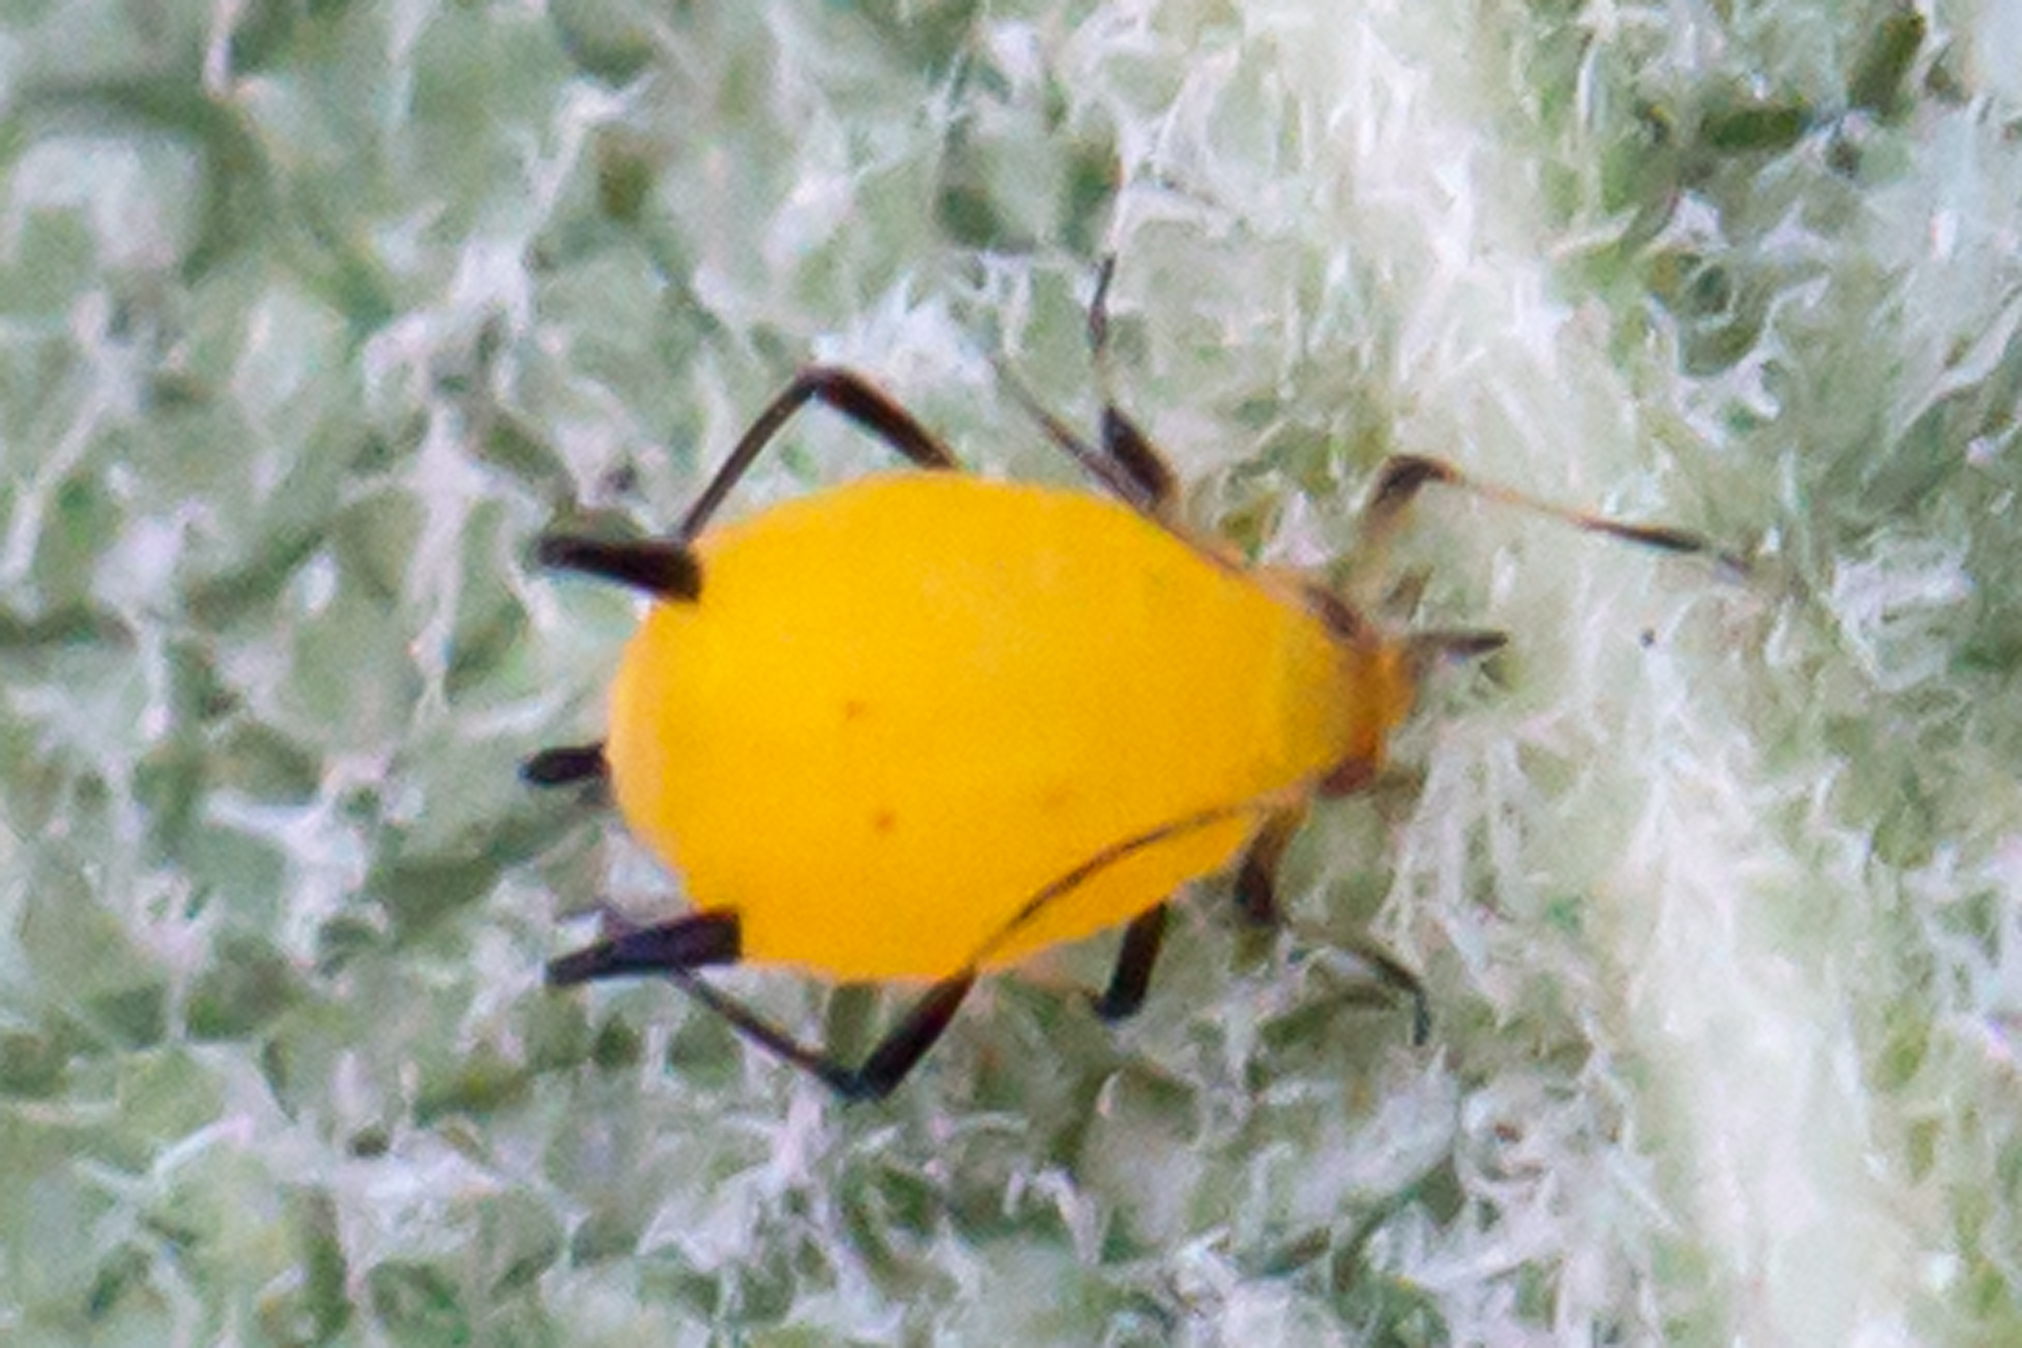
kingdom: Animalia
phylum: Arthropoda
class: Insecta
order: Hemiptera
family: Aphididae
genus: Aphis
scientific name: Aphis nerii
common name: Oleander aphid
